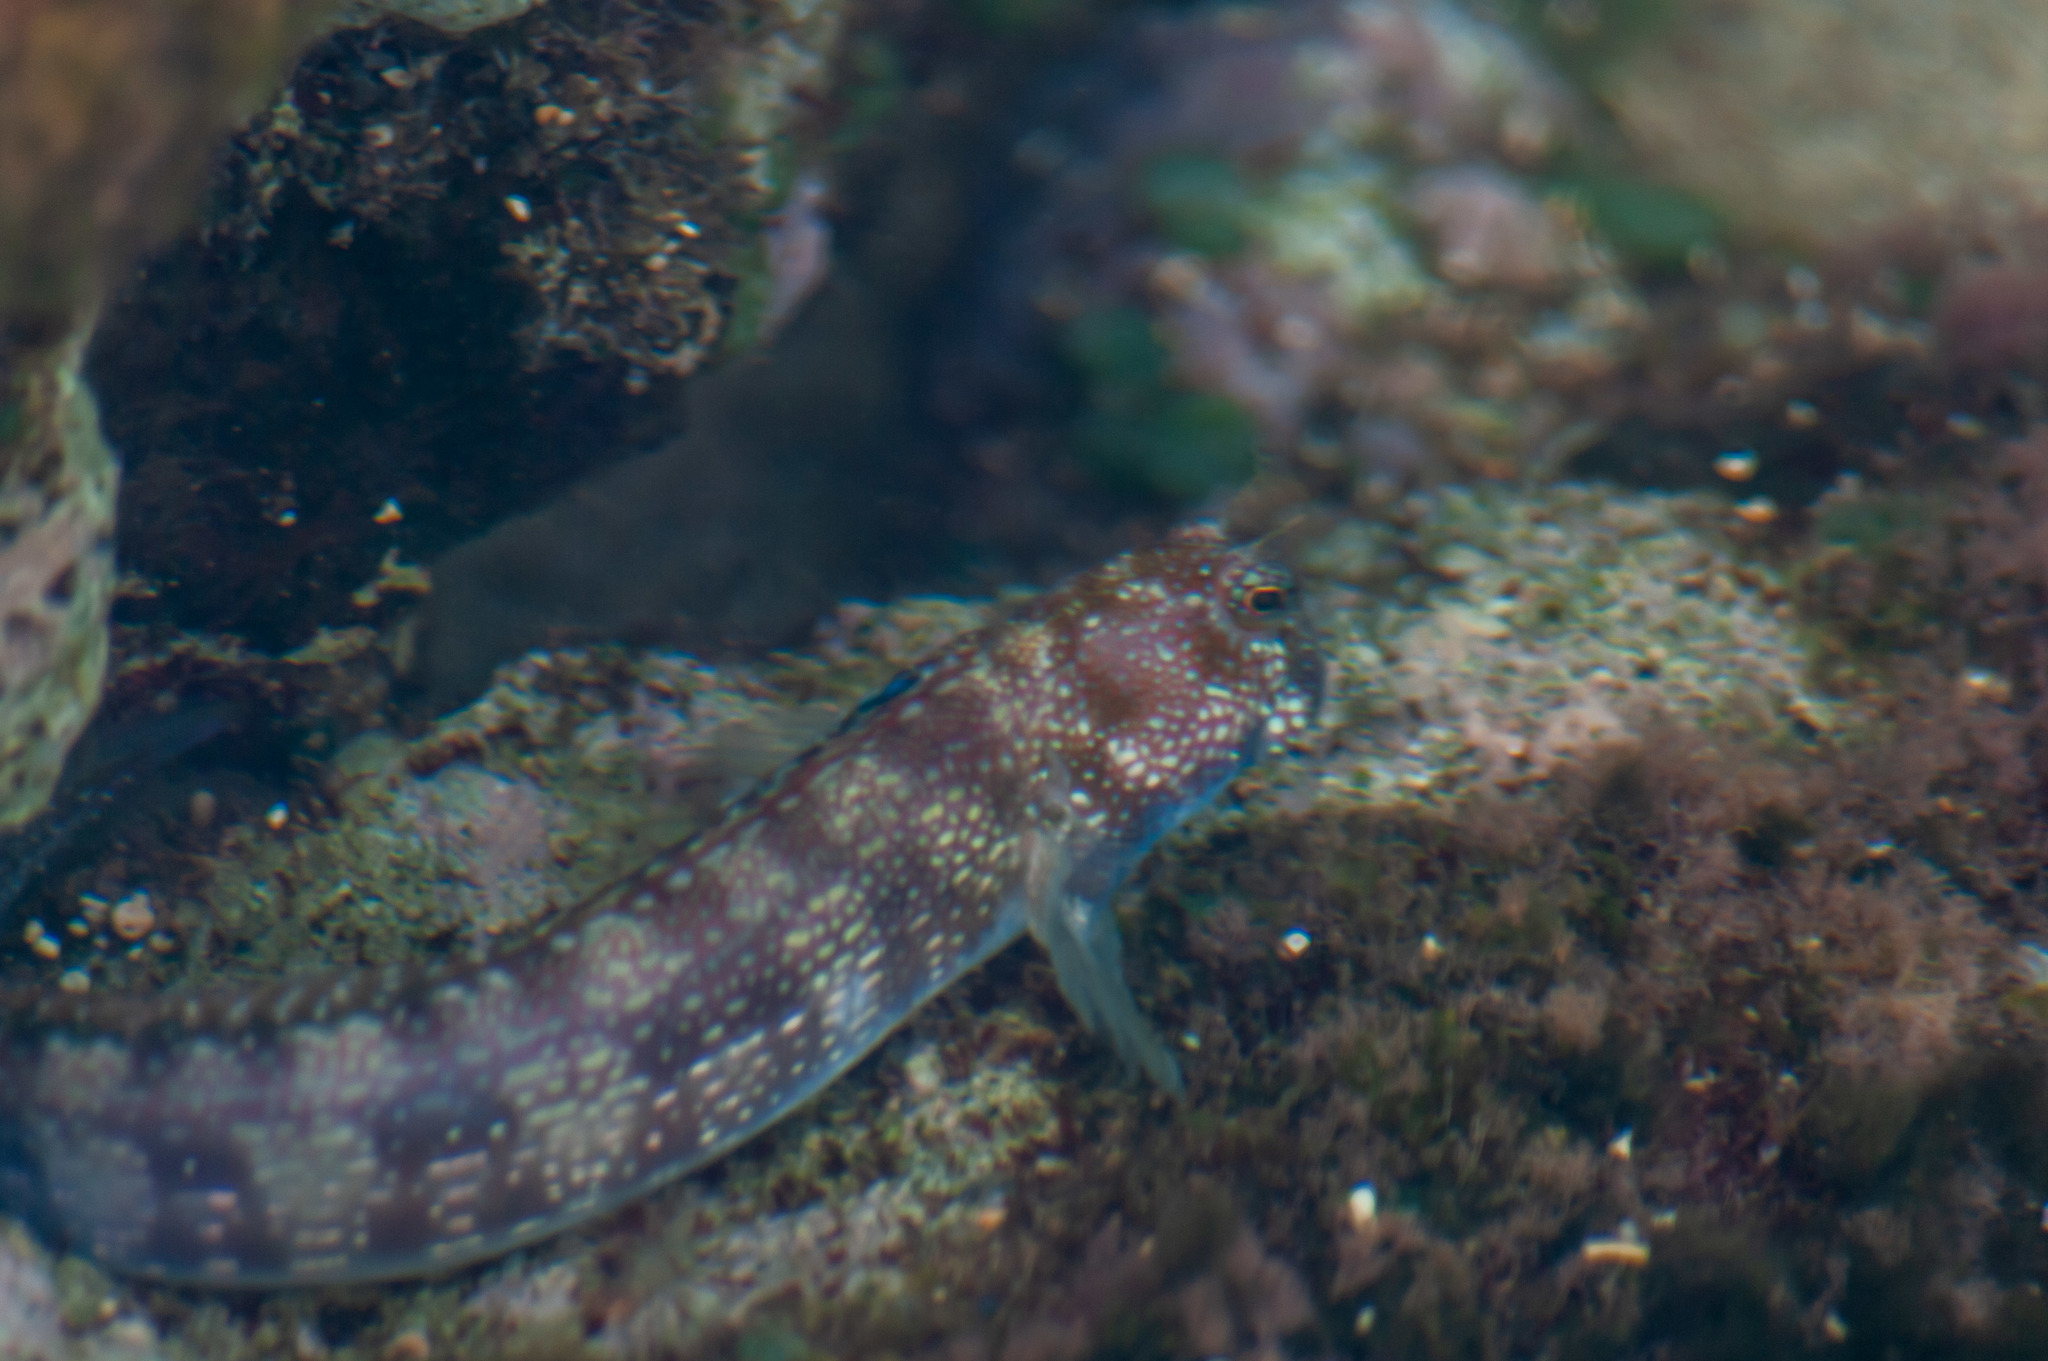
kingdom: Animalia
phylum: Chordata
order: Perciformes
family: Blenniidae
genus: Blenniella
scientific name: Blenniella gibbifrons
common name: Picture rockskipper
